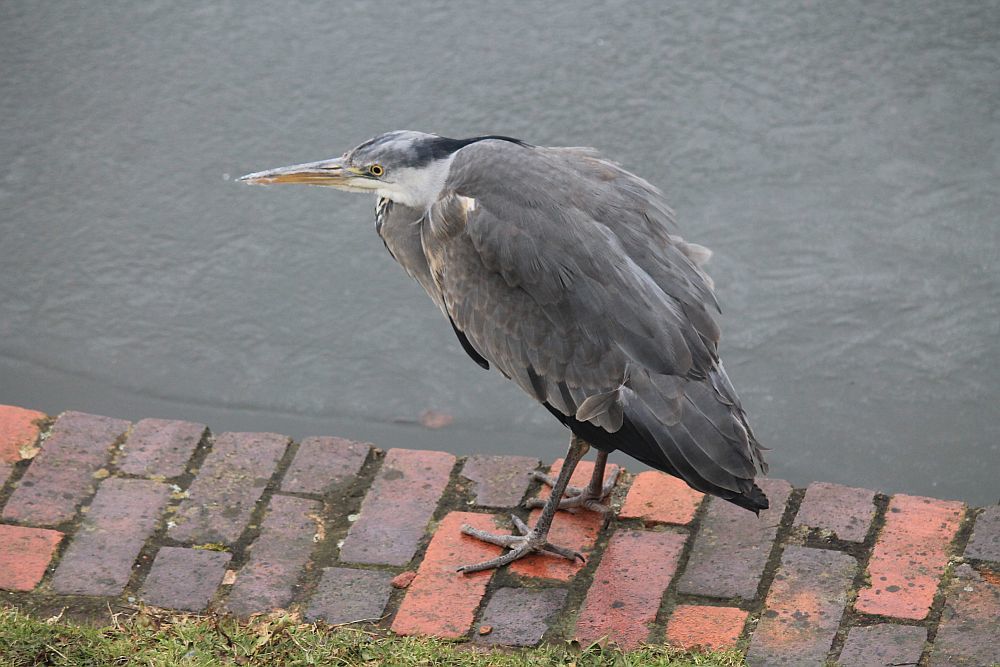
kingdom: Animalia
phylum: Chordata
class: Aves
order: Pelecaniformes
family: Ardeidae
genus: Ardea
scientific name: Ardea cinerea
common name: Grey heron
